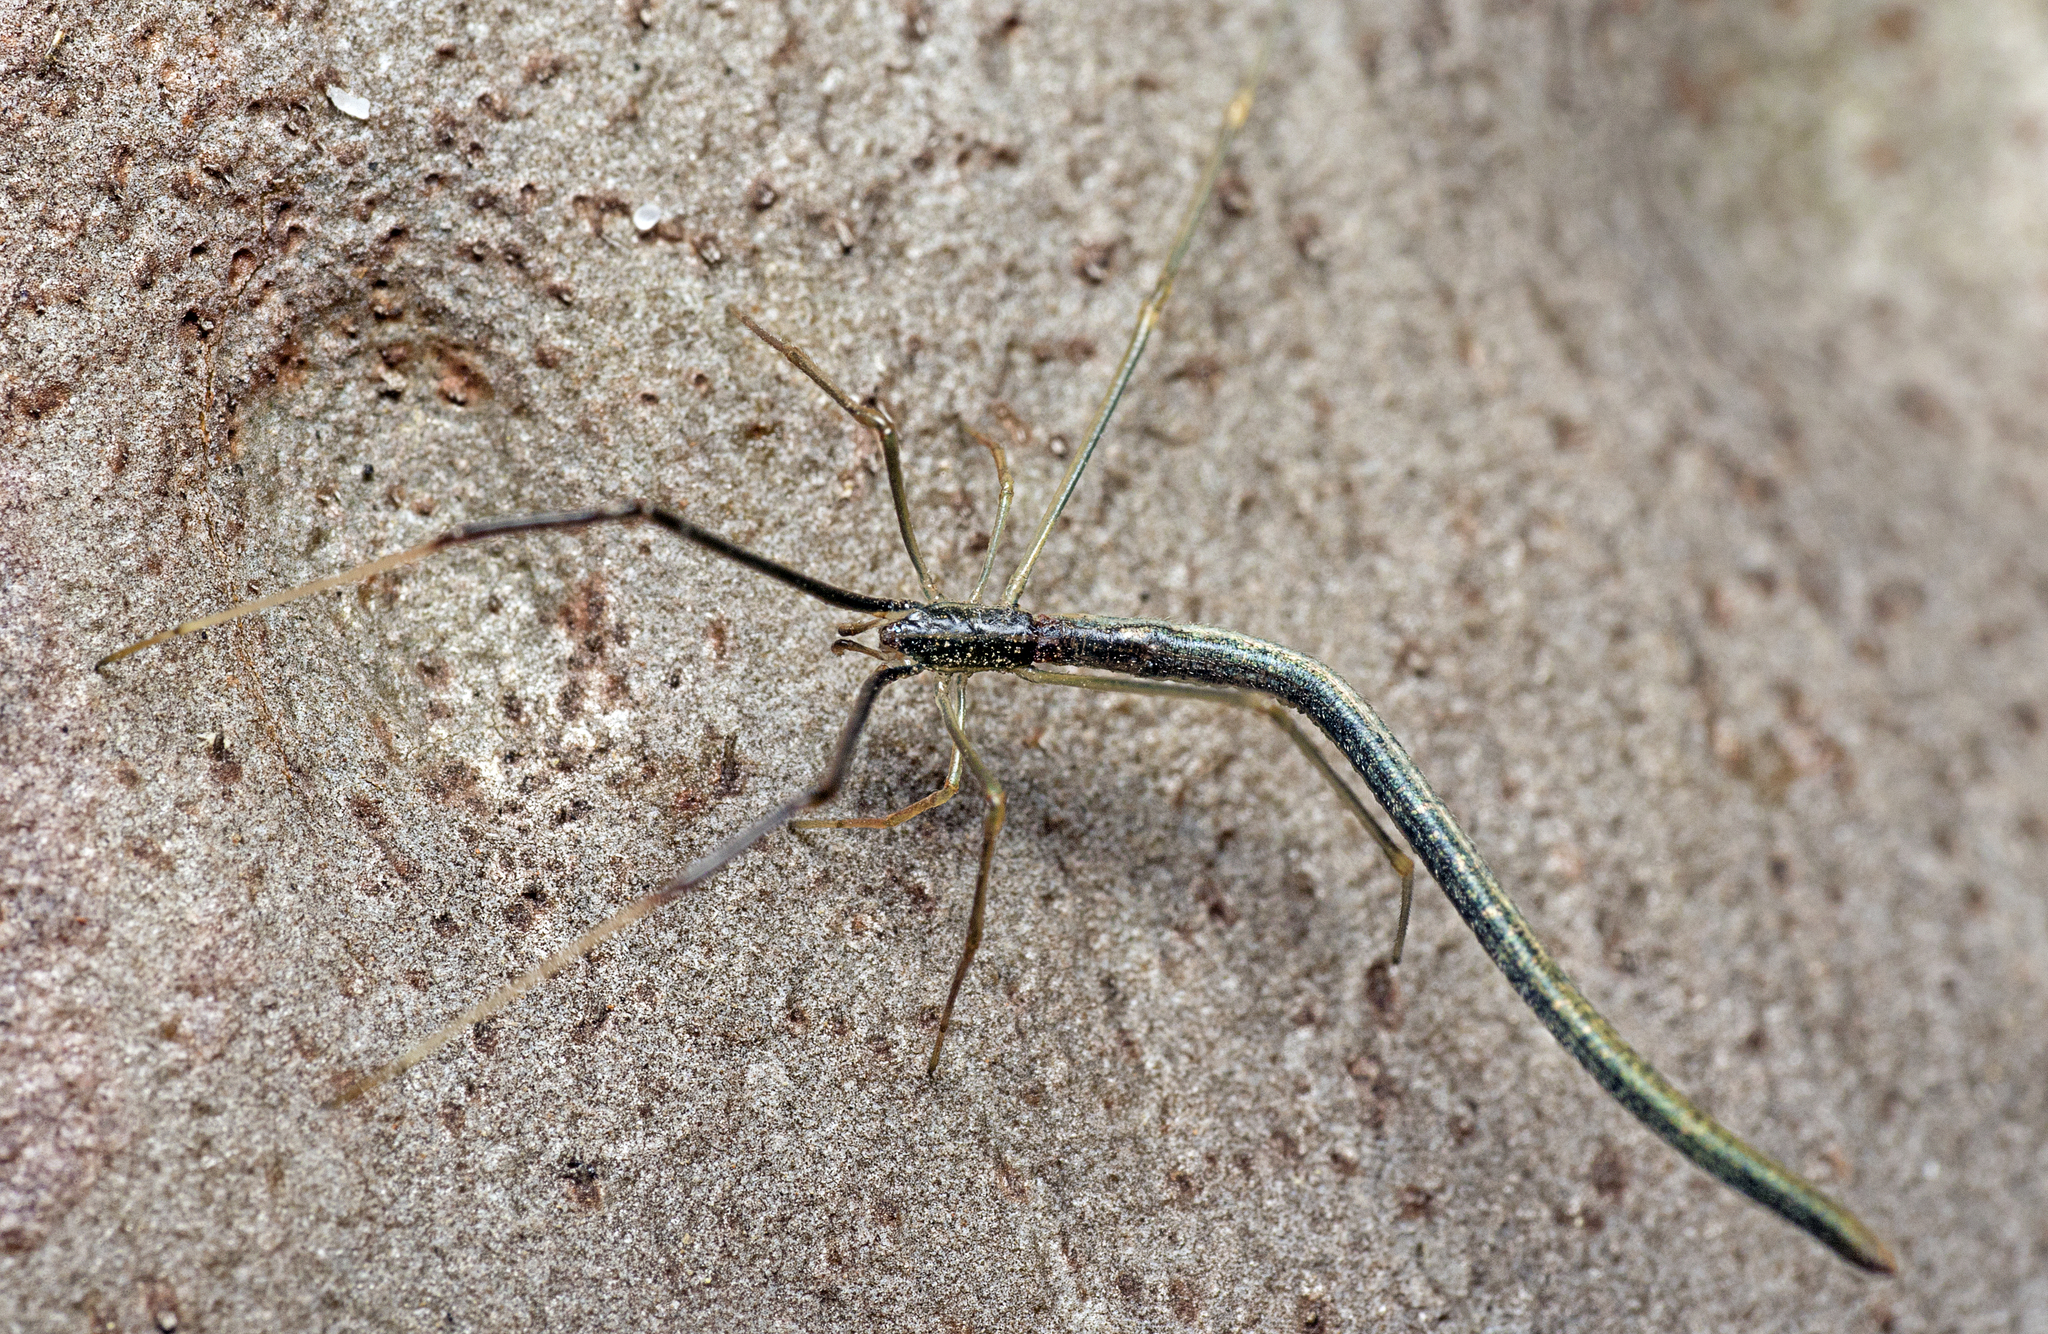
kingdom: Animalia
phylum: Arthropoda
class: Arachnida
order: Araneae
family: Theridiidae
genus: Ariamnes
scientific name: Ariamnes colubrinus
